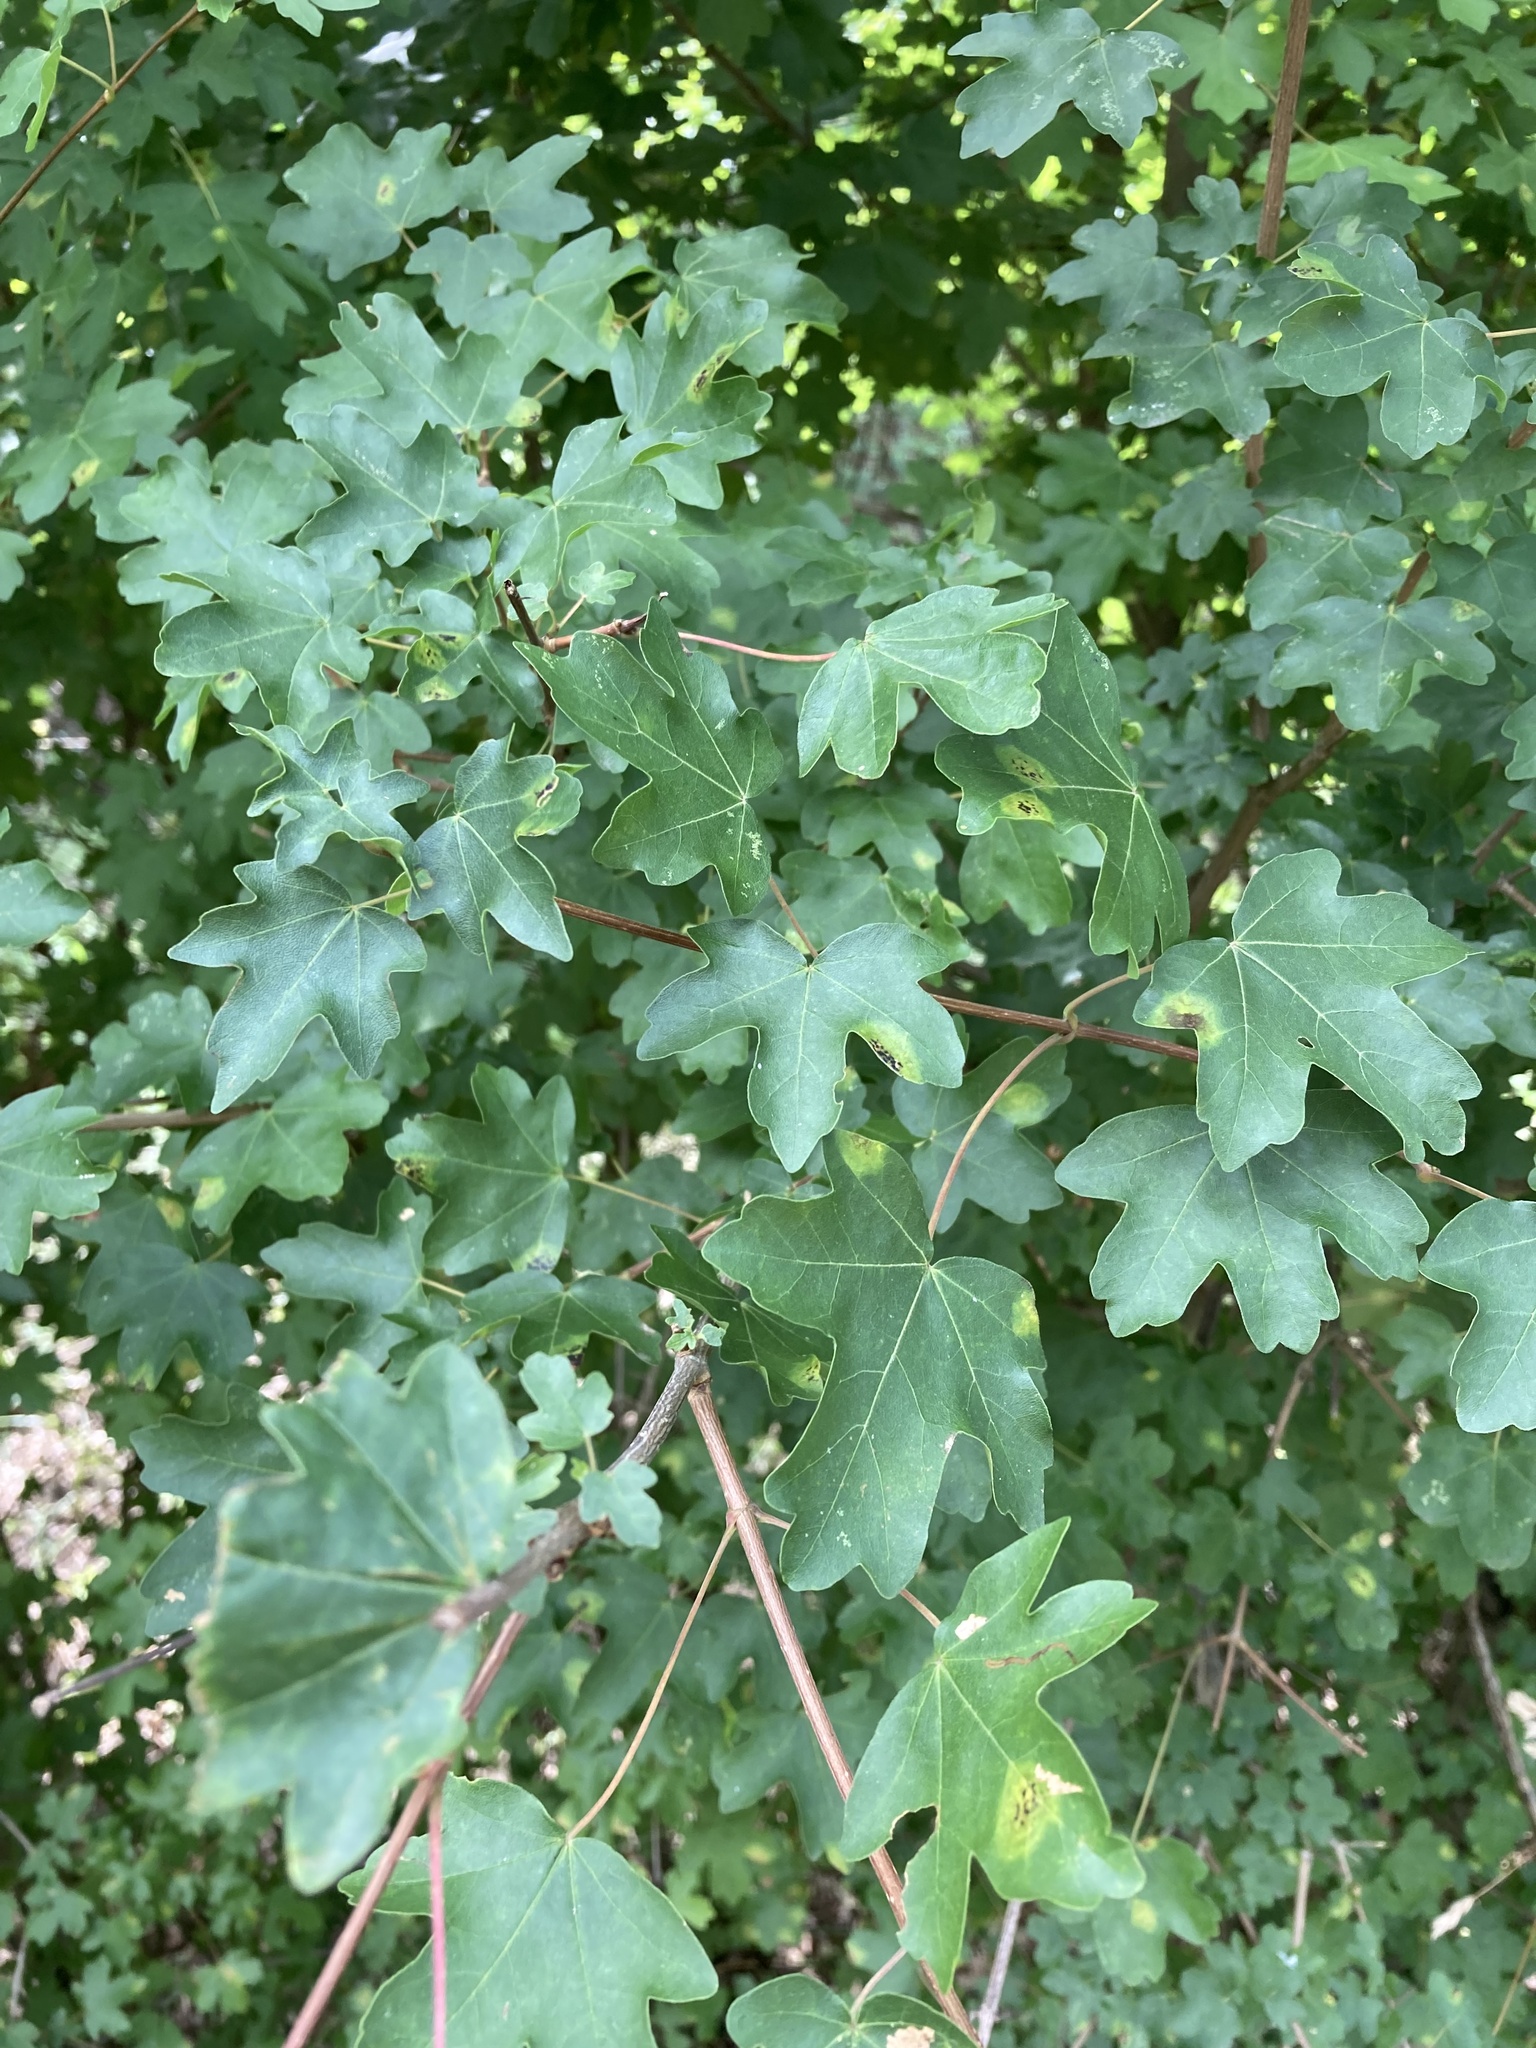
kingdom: Plantae
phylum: Tracheophyta
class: Magnoliopsida
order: Sapindales
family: Sapindaceae
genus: Acer
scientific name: Acer campestre
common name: Field maple
